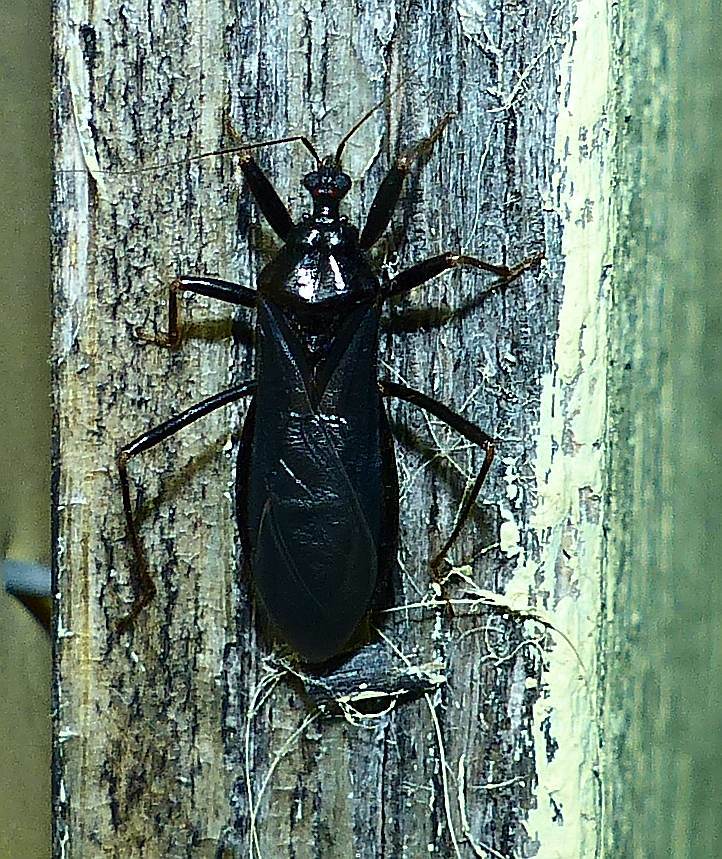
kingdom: Animalia
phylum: Arthropoda
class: Insecta
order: Hemiptera
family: Reduviidae
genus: Reduvius
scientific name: Reduvius personatus
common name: Masked hunter
